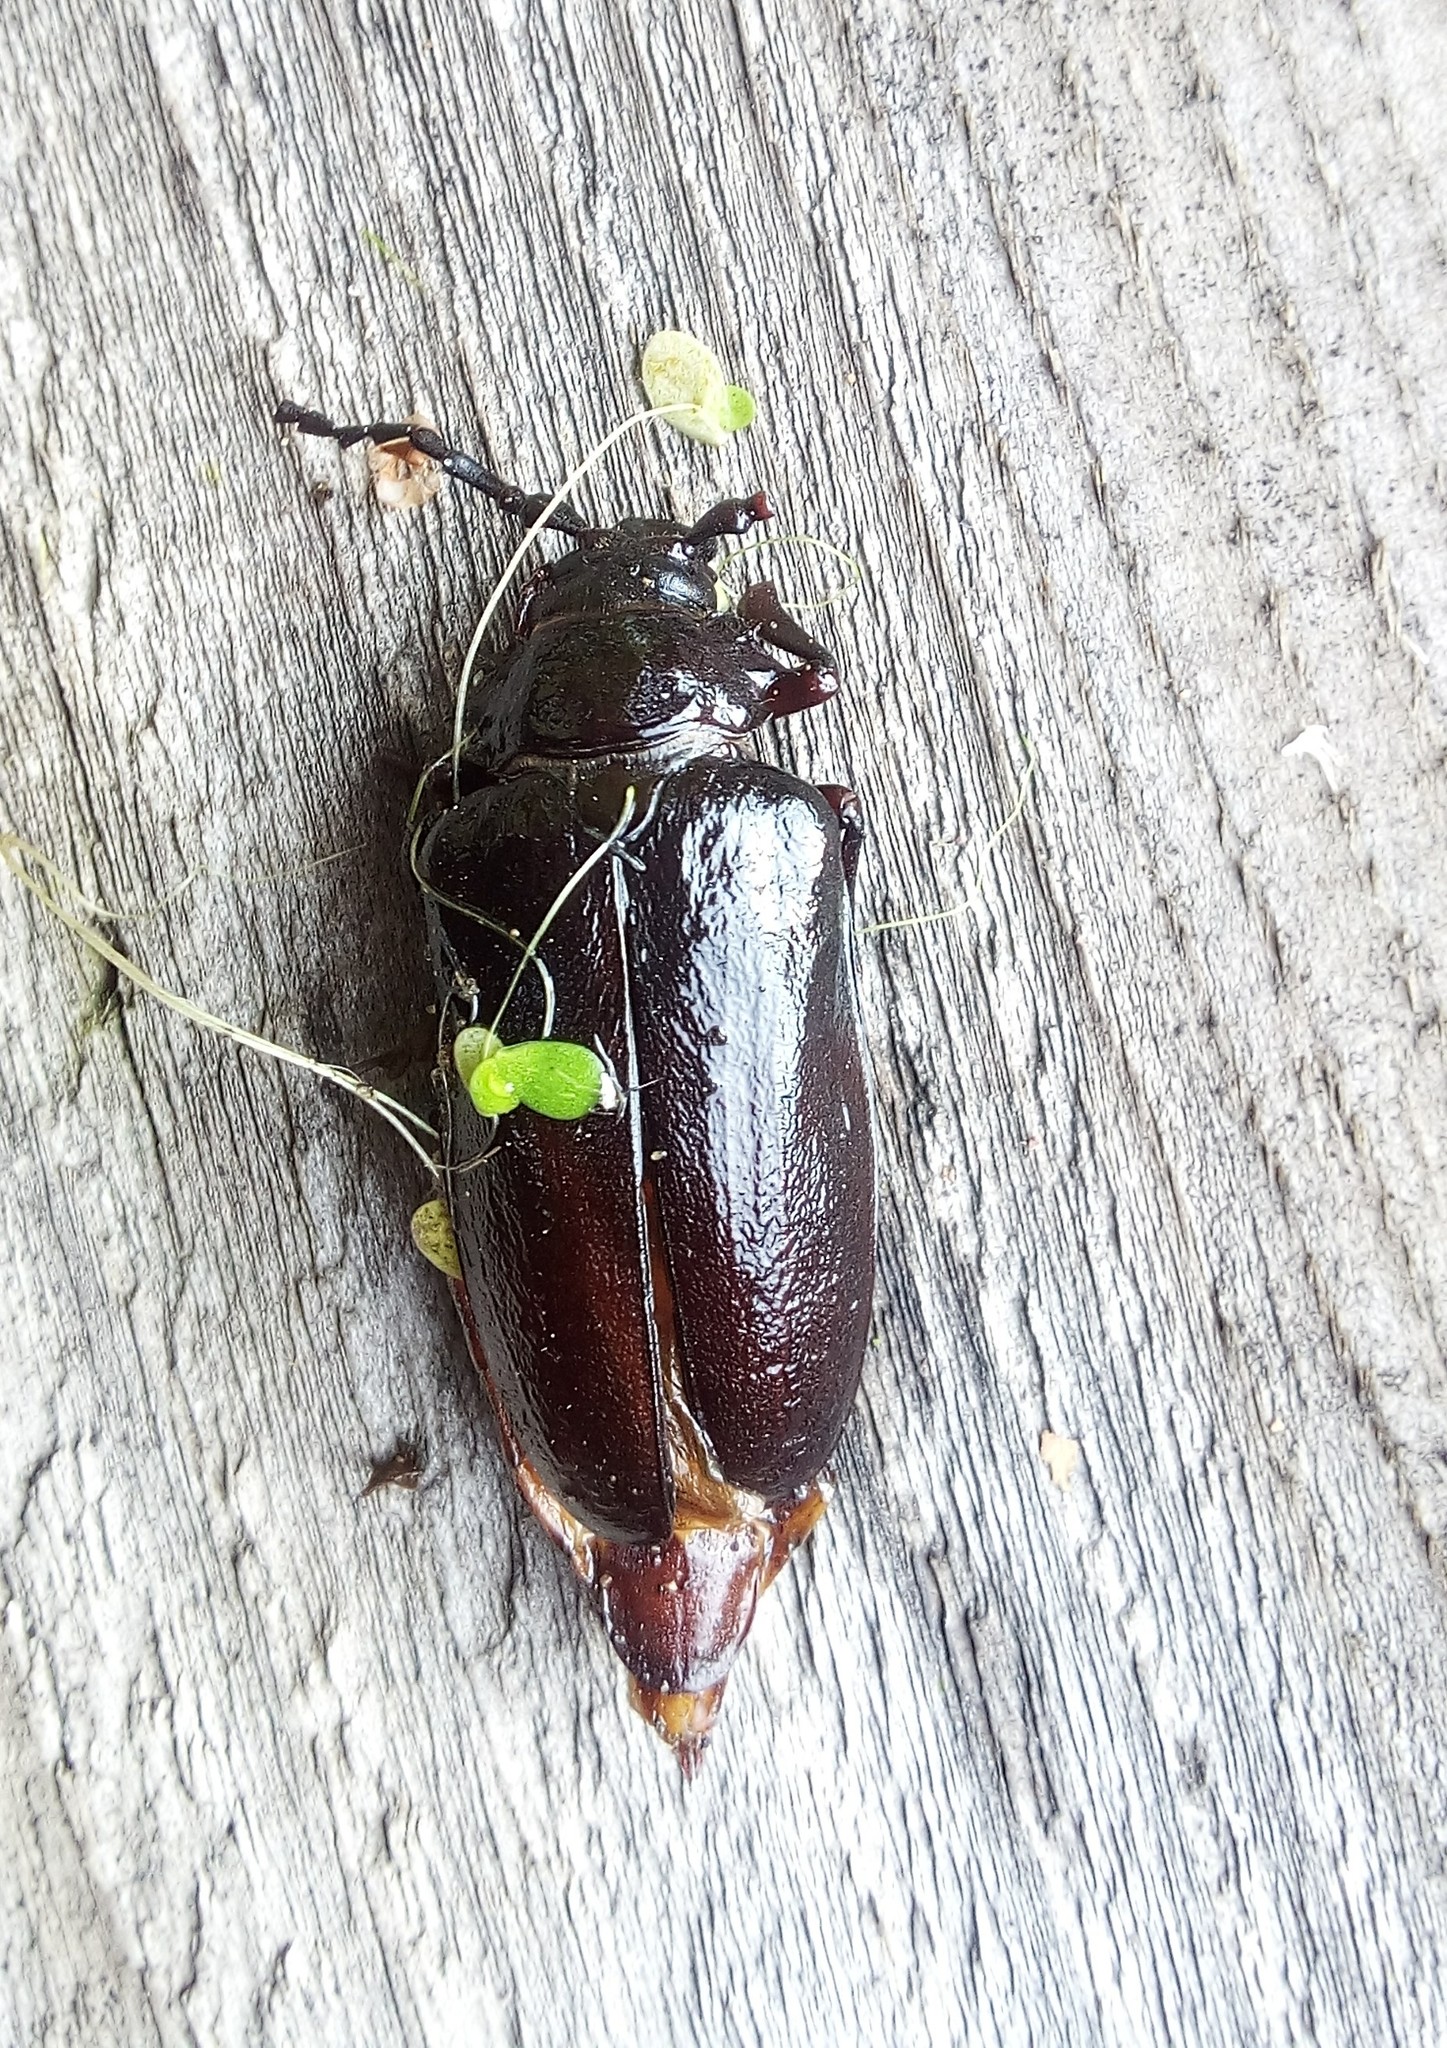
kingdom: Animalia
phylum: Arthropoda
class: Insecta
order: Coleoptera
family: Cerambycidae
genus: Prionus
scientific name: Prionus coriarius
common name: Tanner beetle
